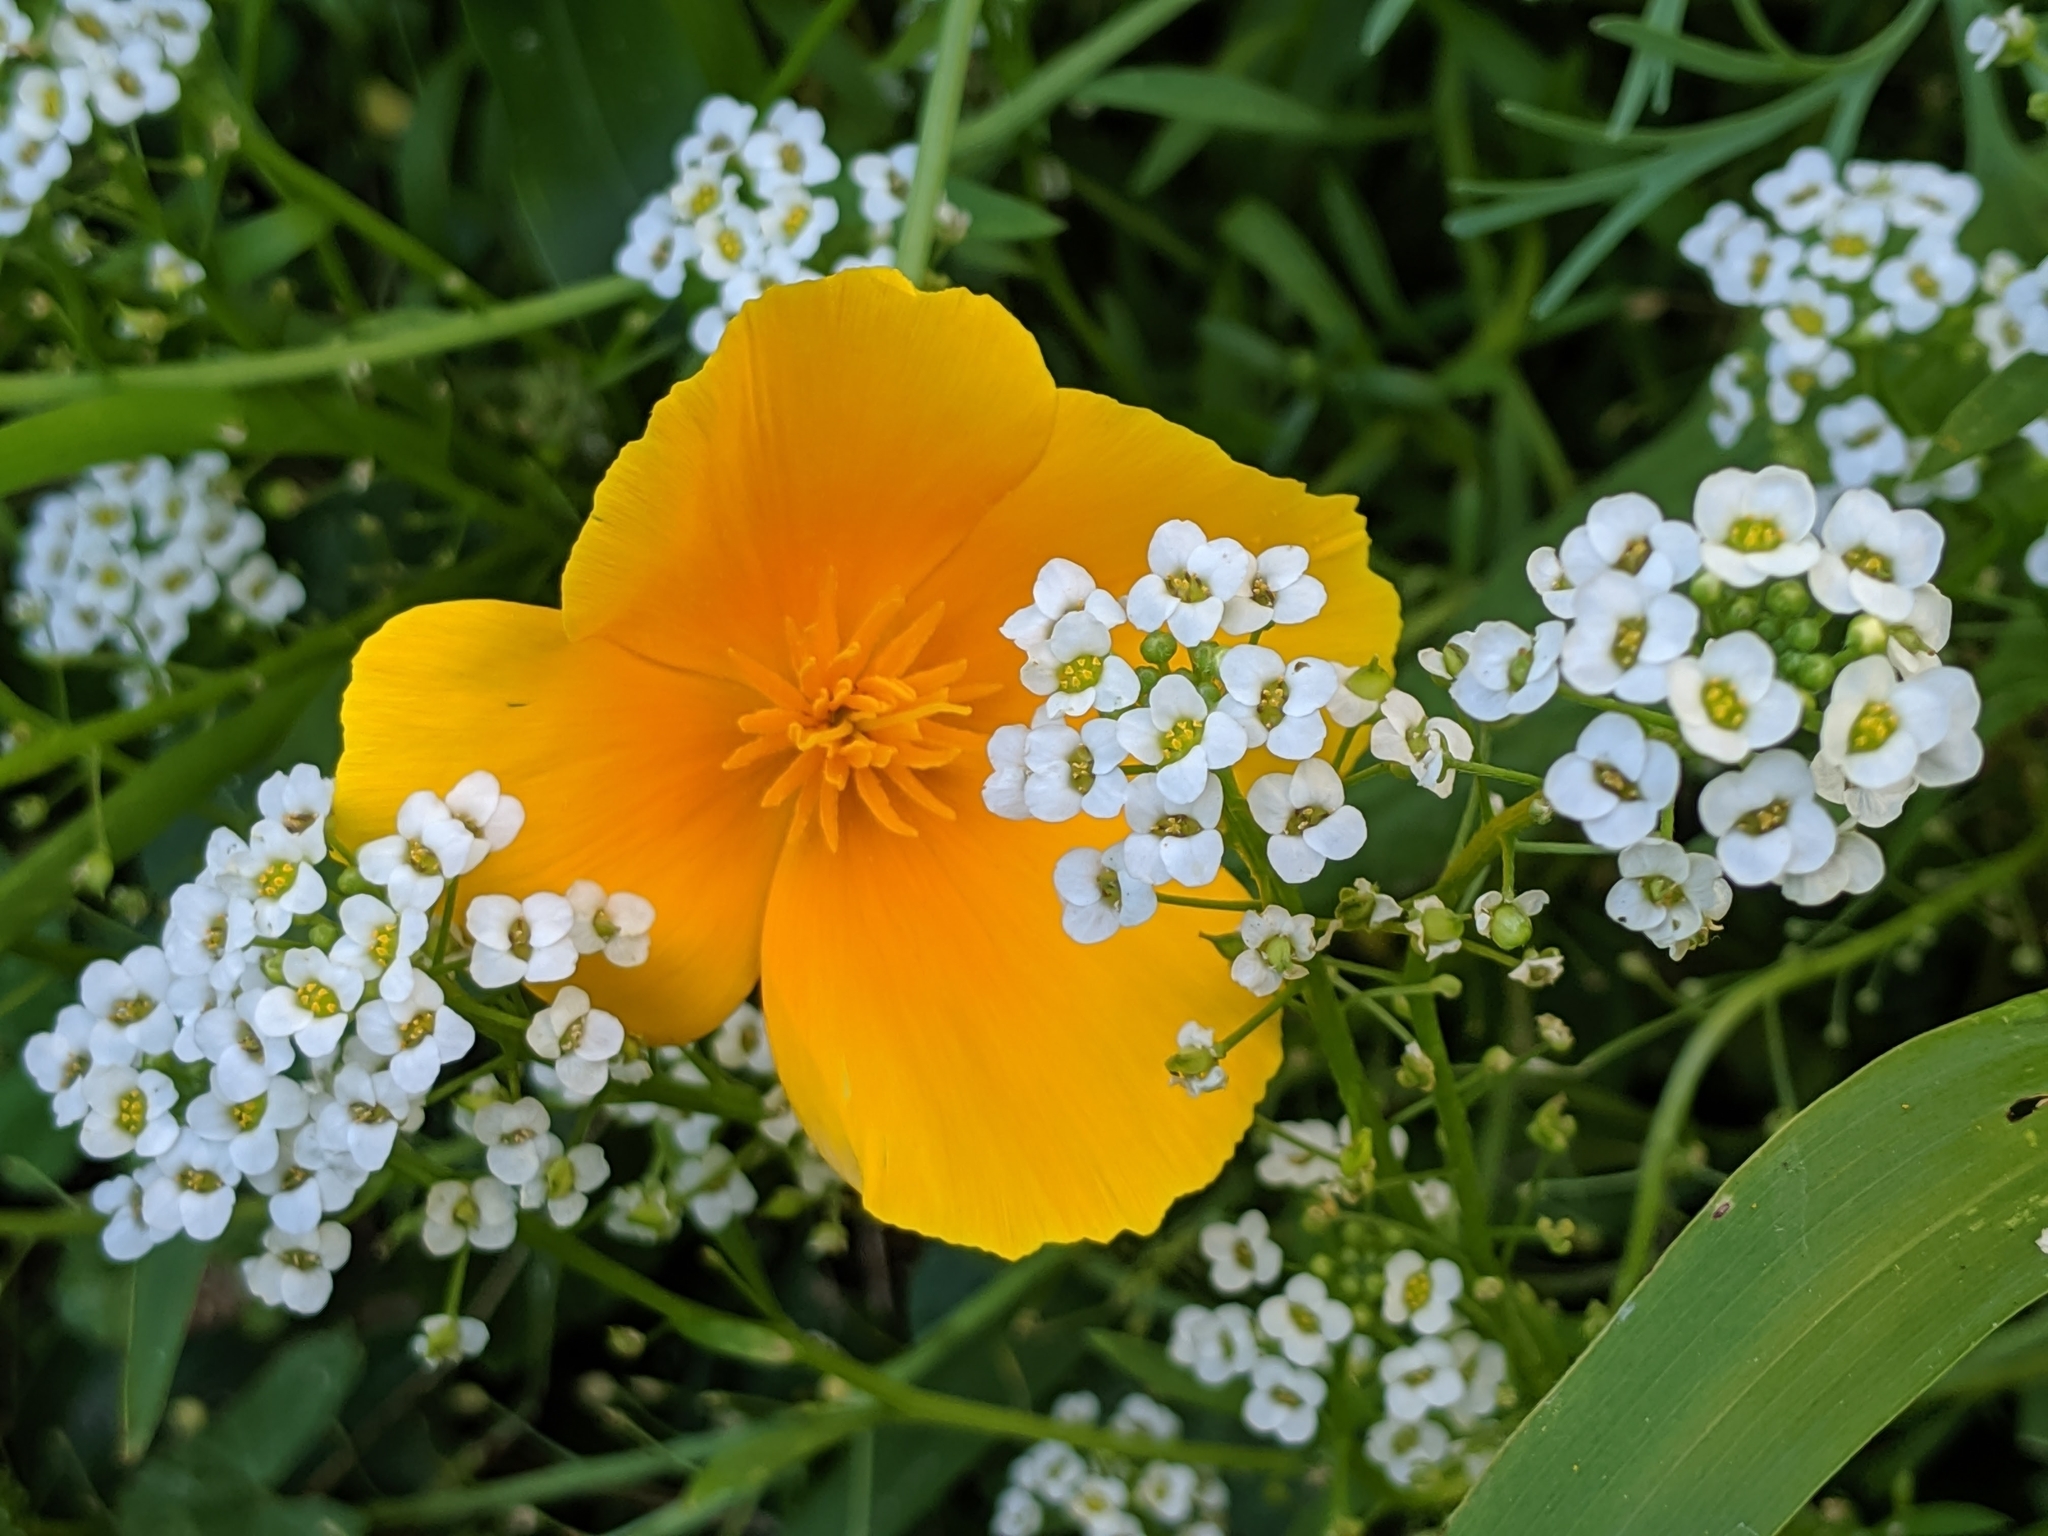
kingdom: Plantae
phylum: Tracheophyta
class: Magnoliopsida
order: Ranunculales
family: Papaveraceae
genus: Eschscholzia
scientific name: Eschscholzia californica
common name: California poppy
